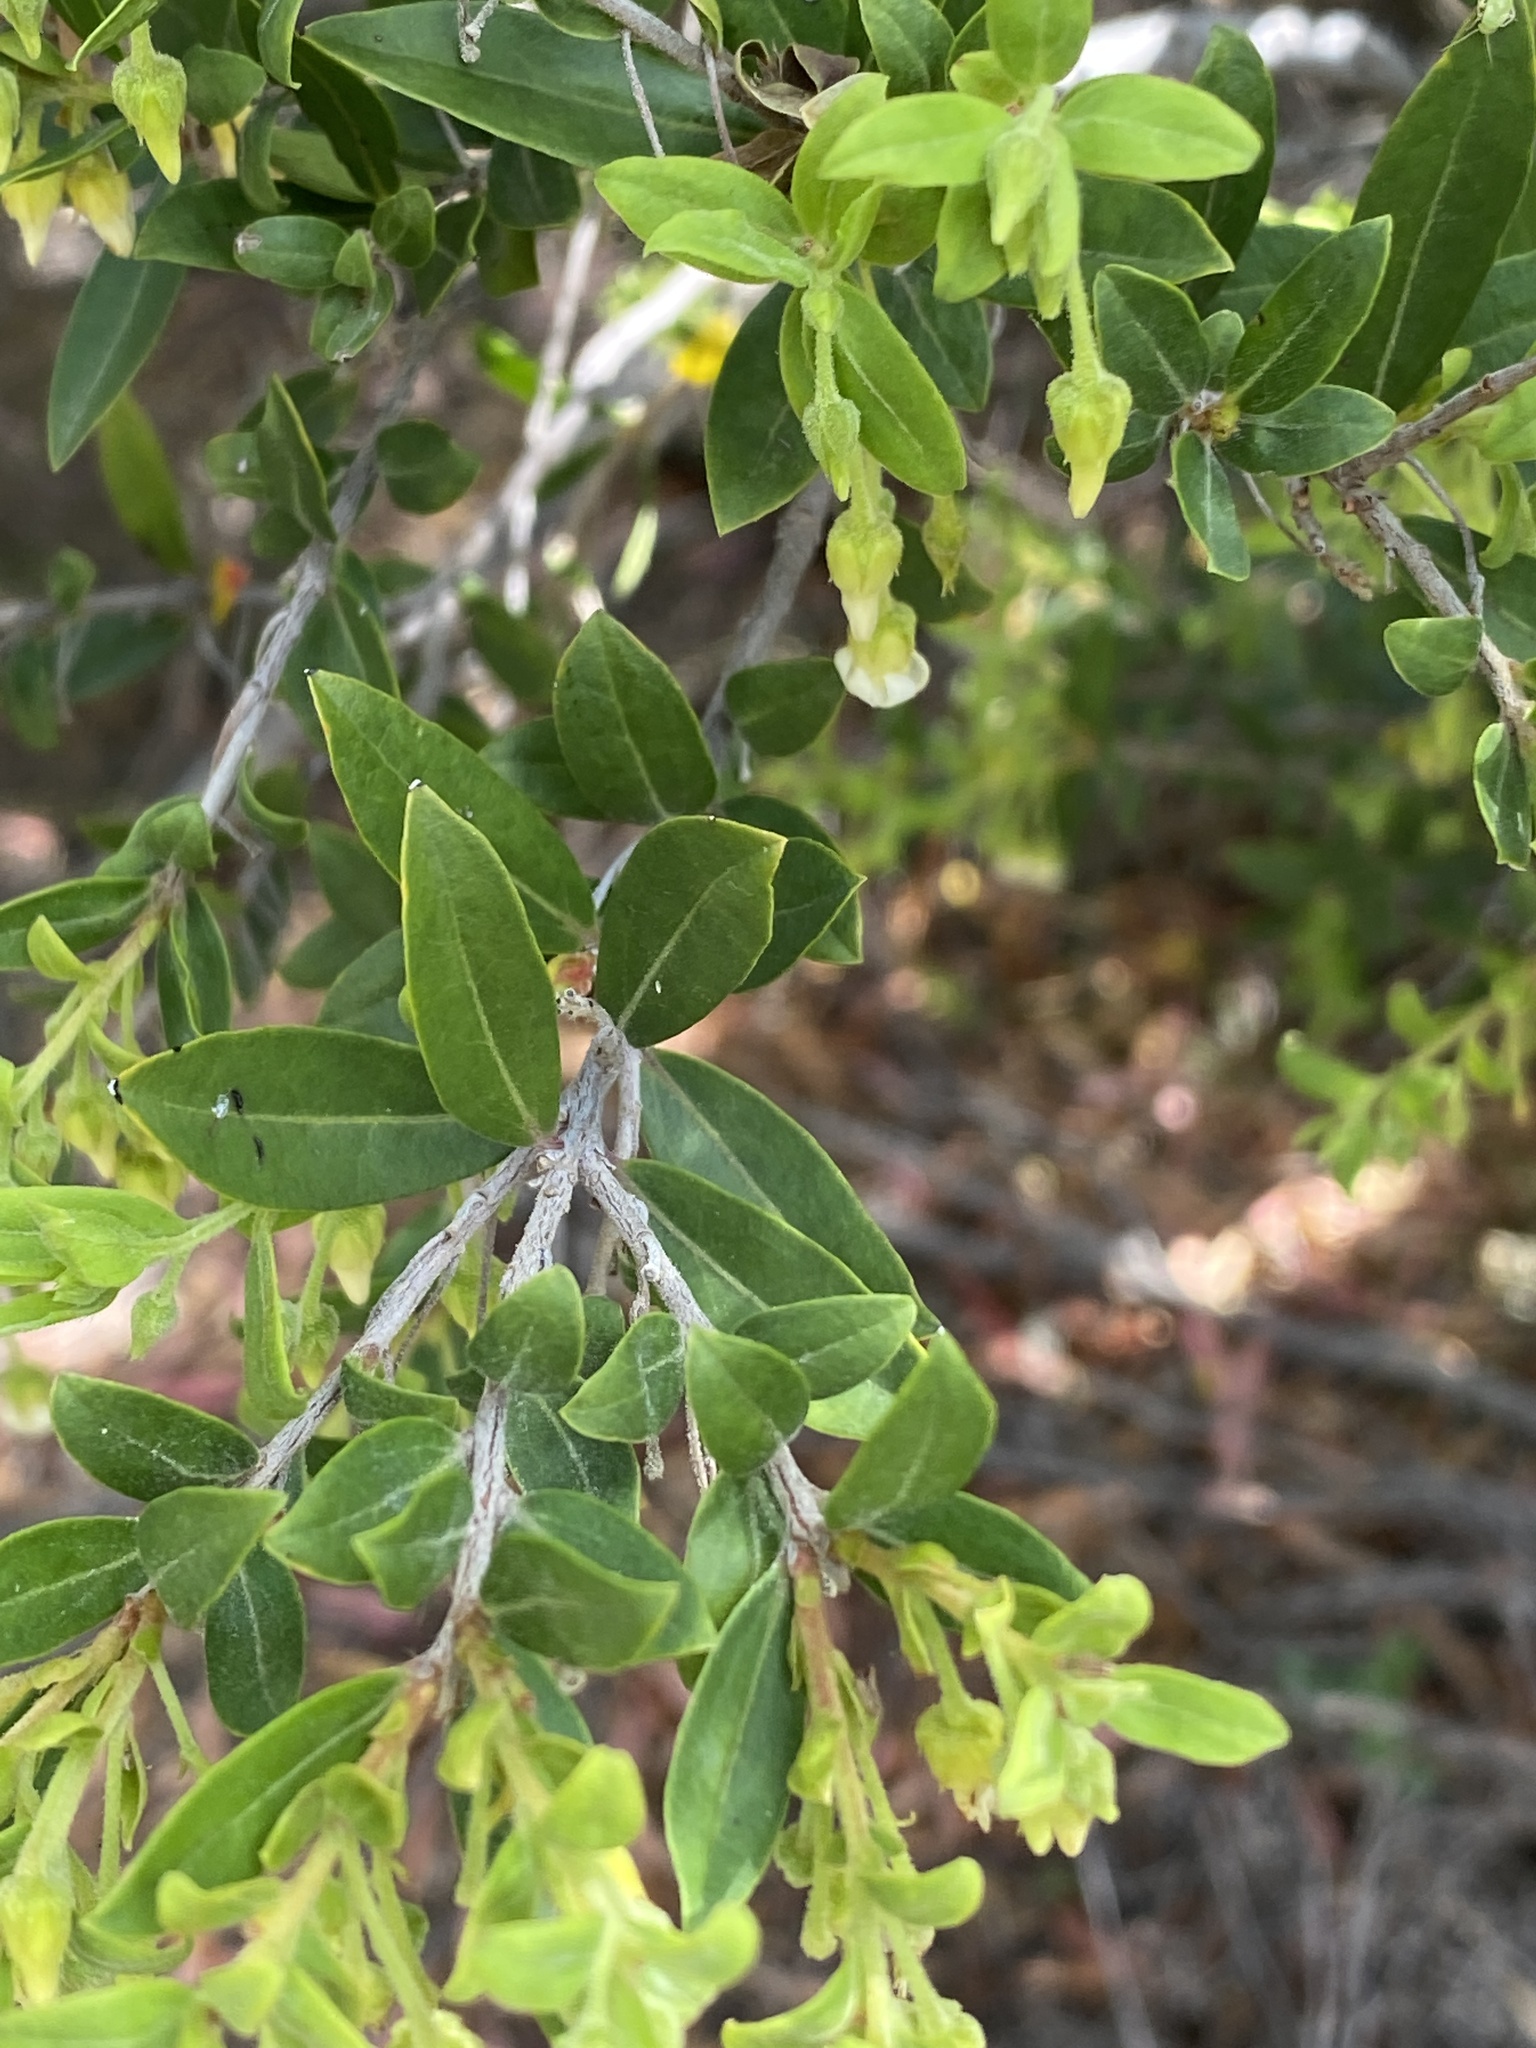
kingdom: Plantae
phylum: Tracheophyta
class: Magnoliopsida
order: Ericales
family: Ebenaceae
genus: Diospyros
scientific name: Diospyros glabra
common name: Fynbos star apple
